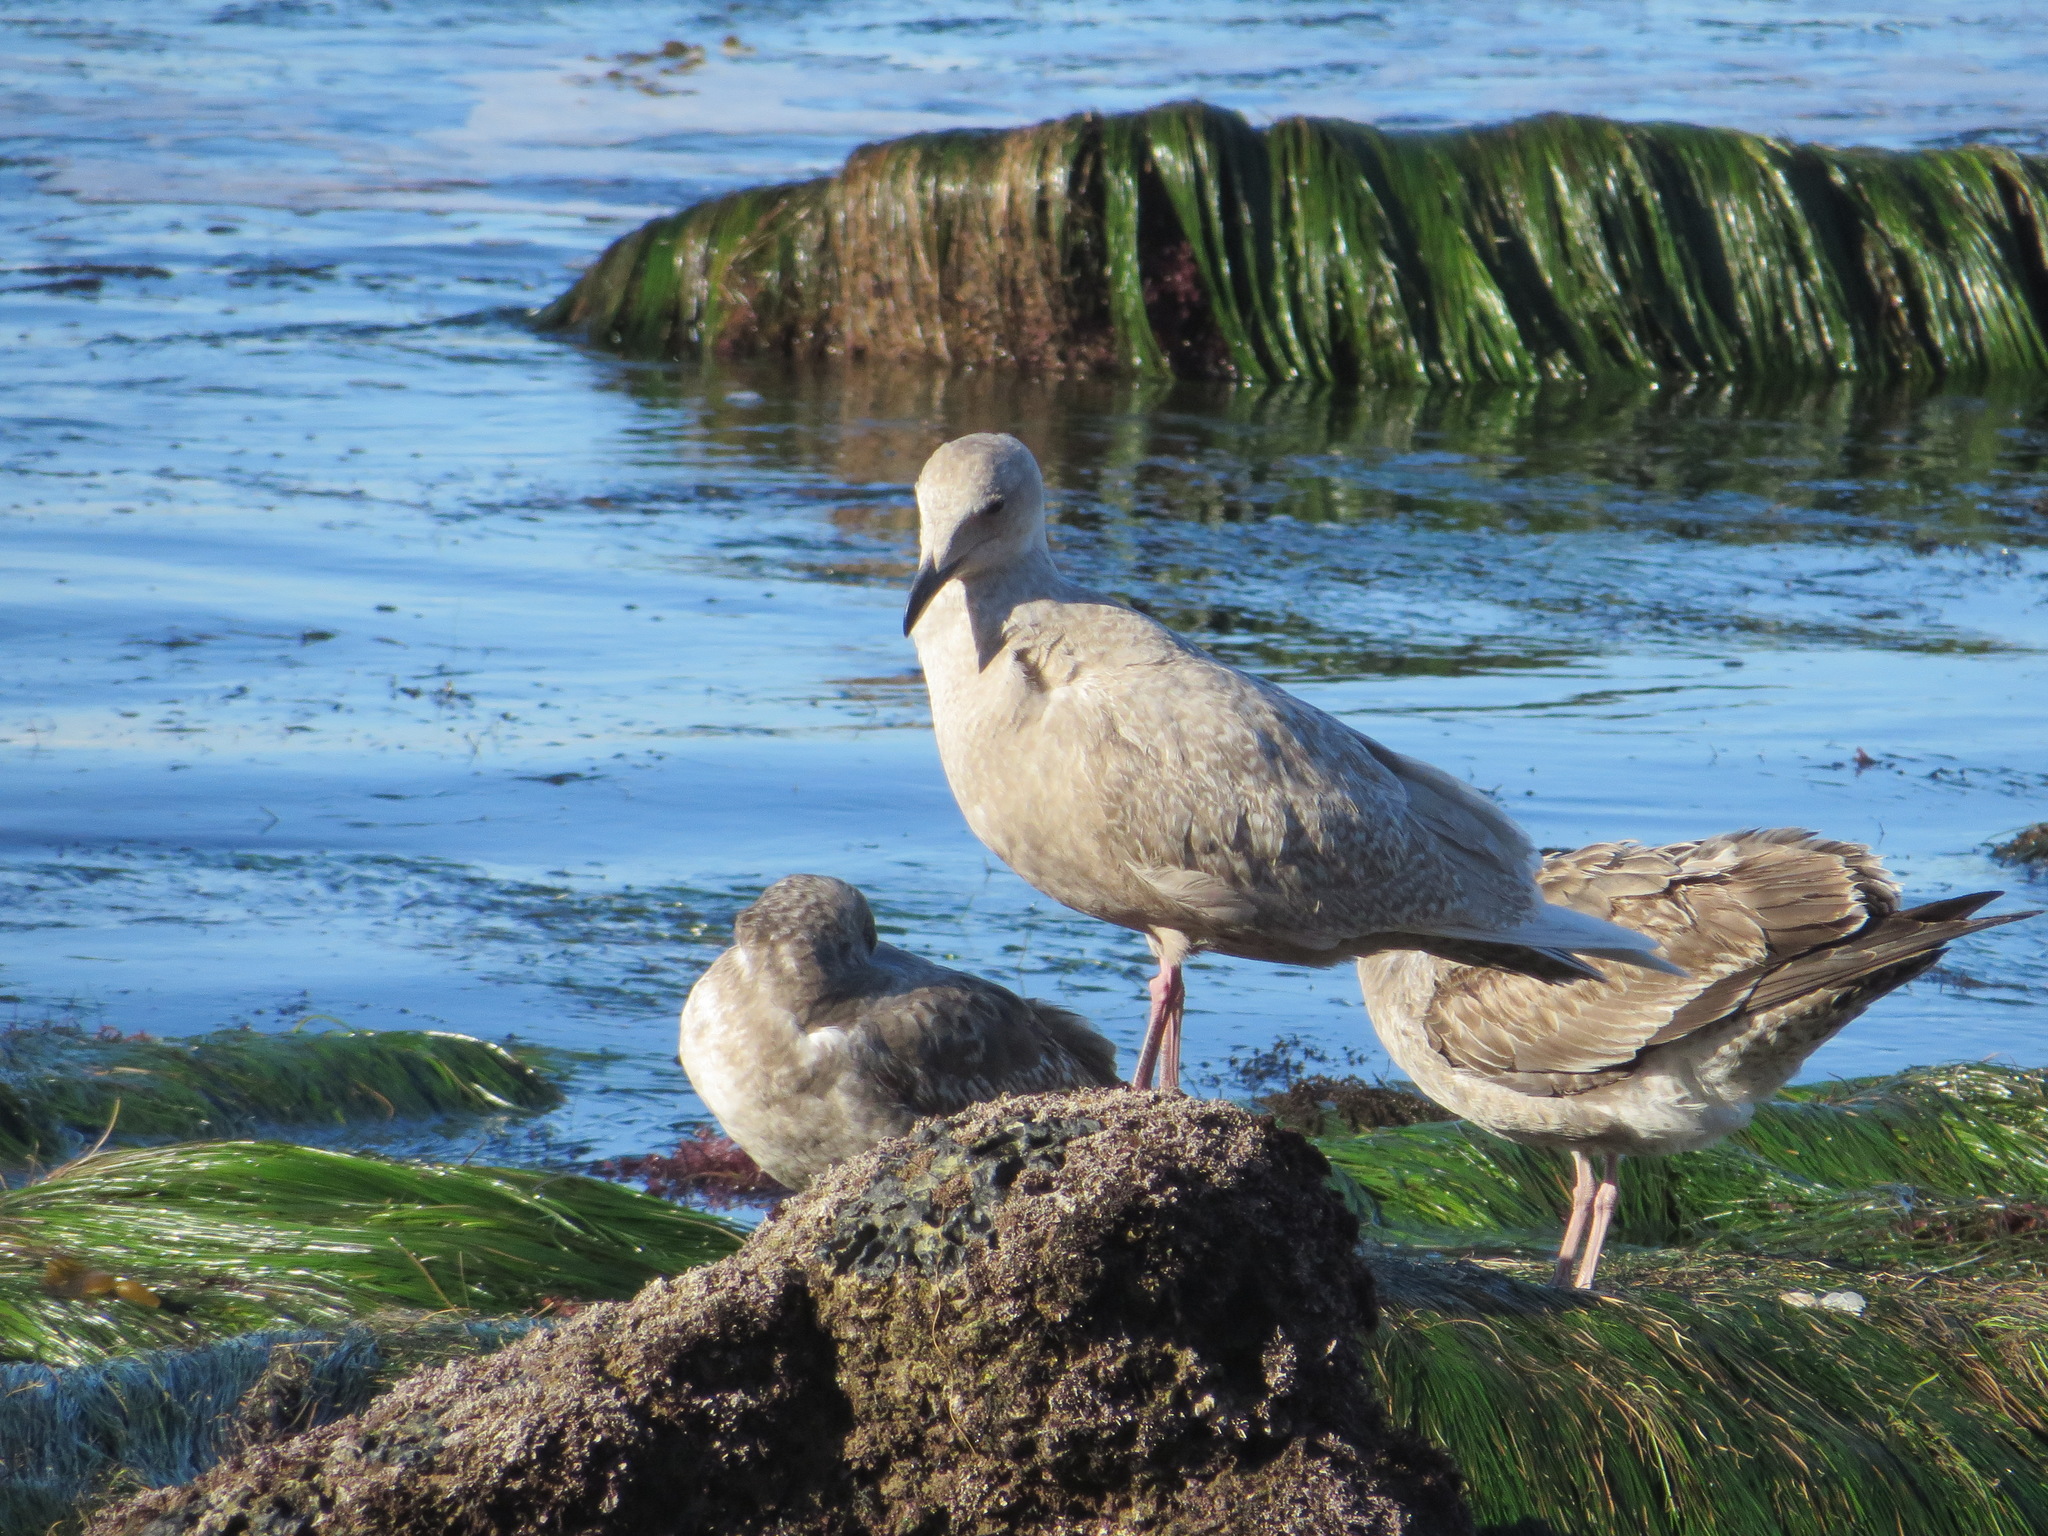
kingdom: Animalia
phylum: Chordata
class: Aves
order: Charadriiformes
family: Laridae
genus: Larus
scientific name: Larus glaucescens
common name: Glaucous-winged gull
